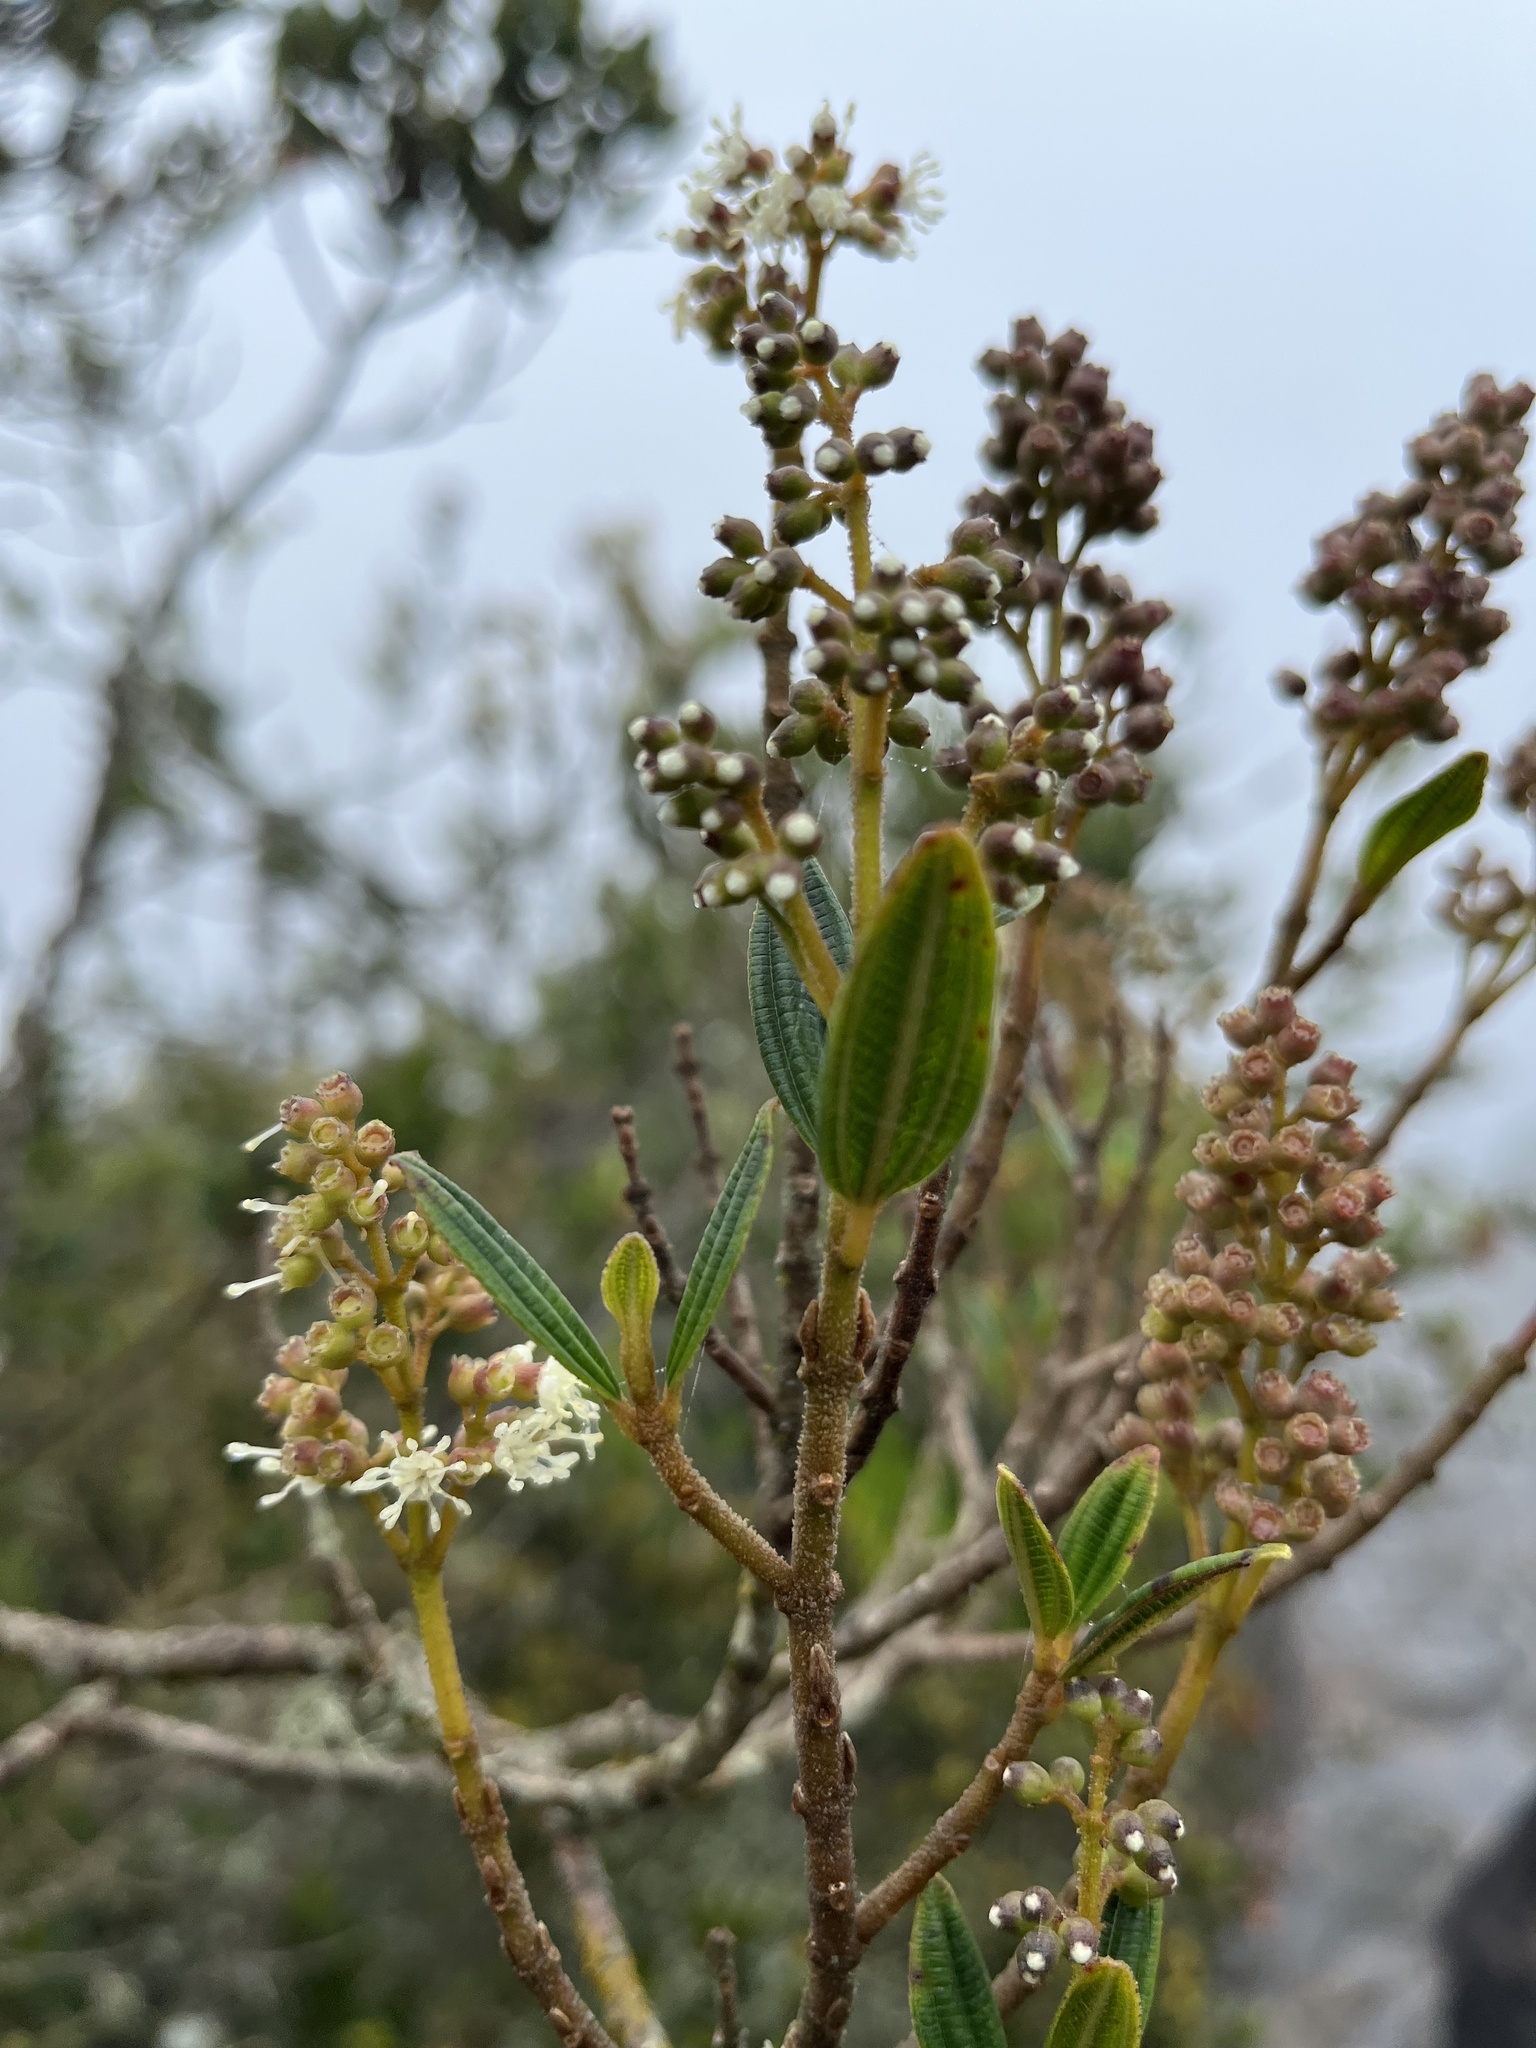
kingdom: Plantae
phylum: Tracheophyta
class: Magnoliopsida
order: Myrtales
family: Melastomataceae
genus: Miconia
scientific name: Miconia elaeoides
